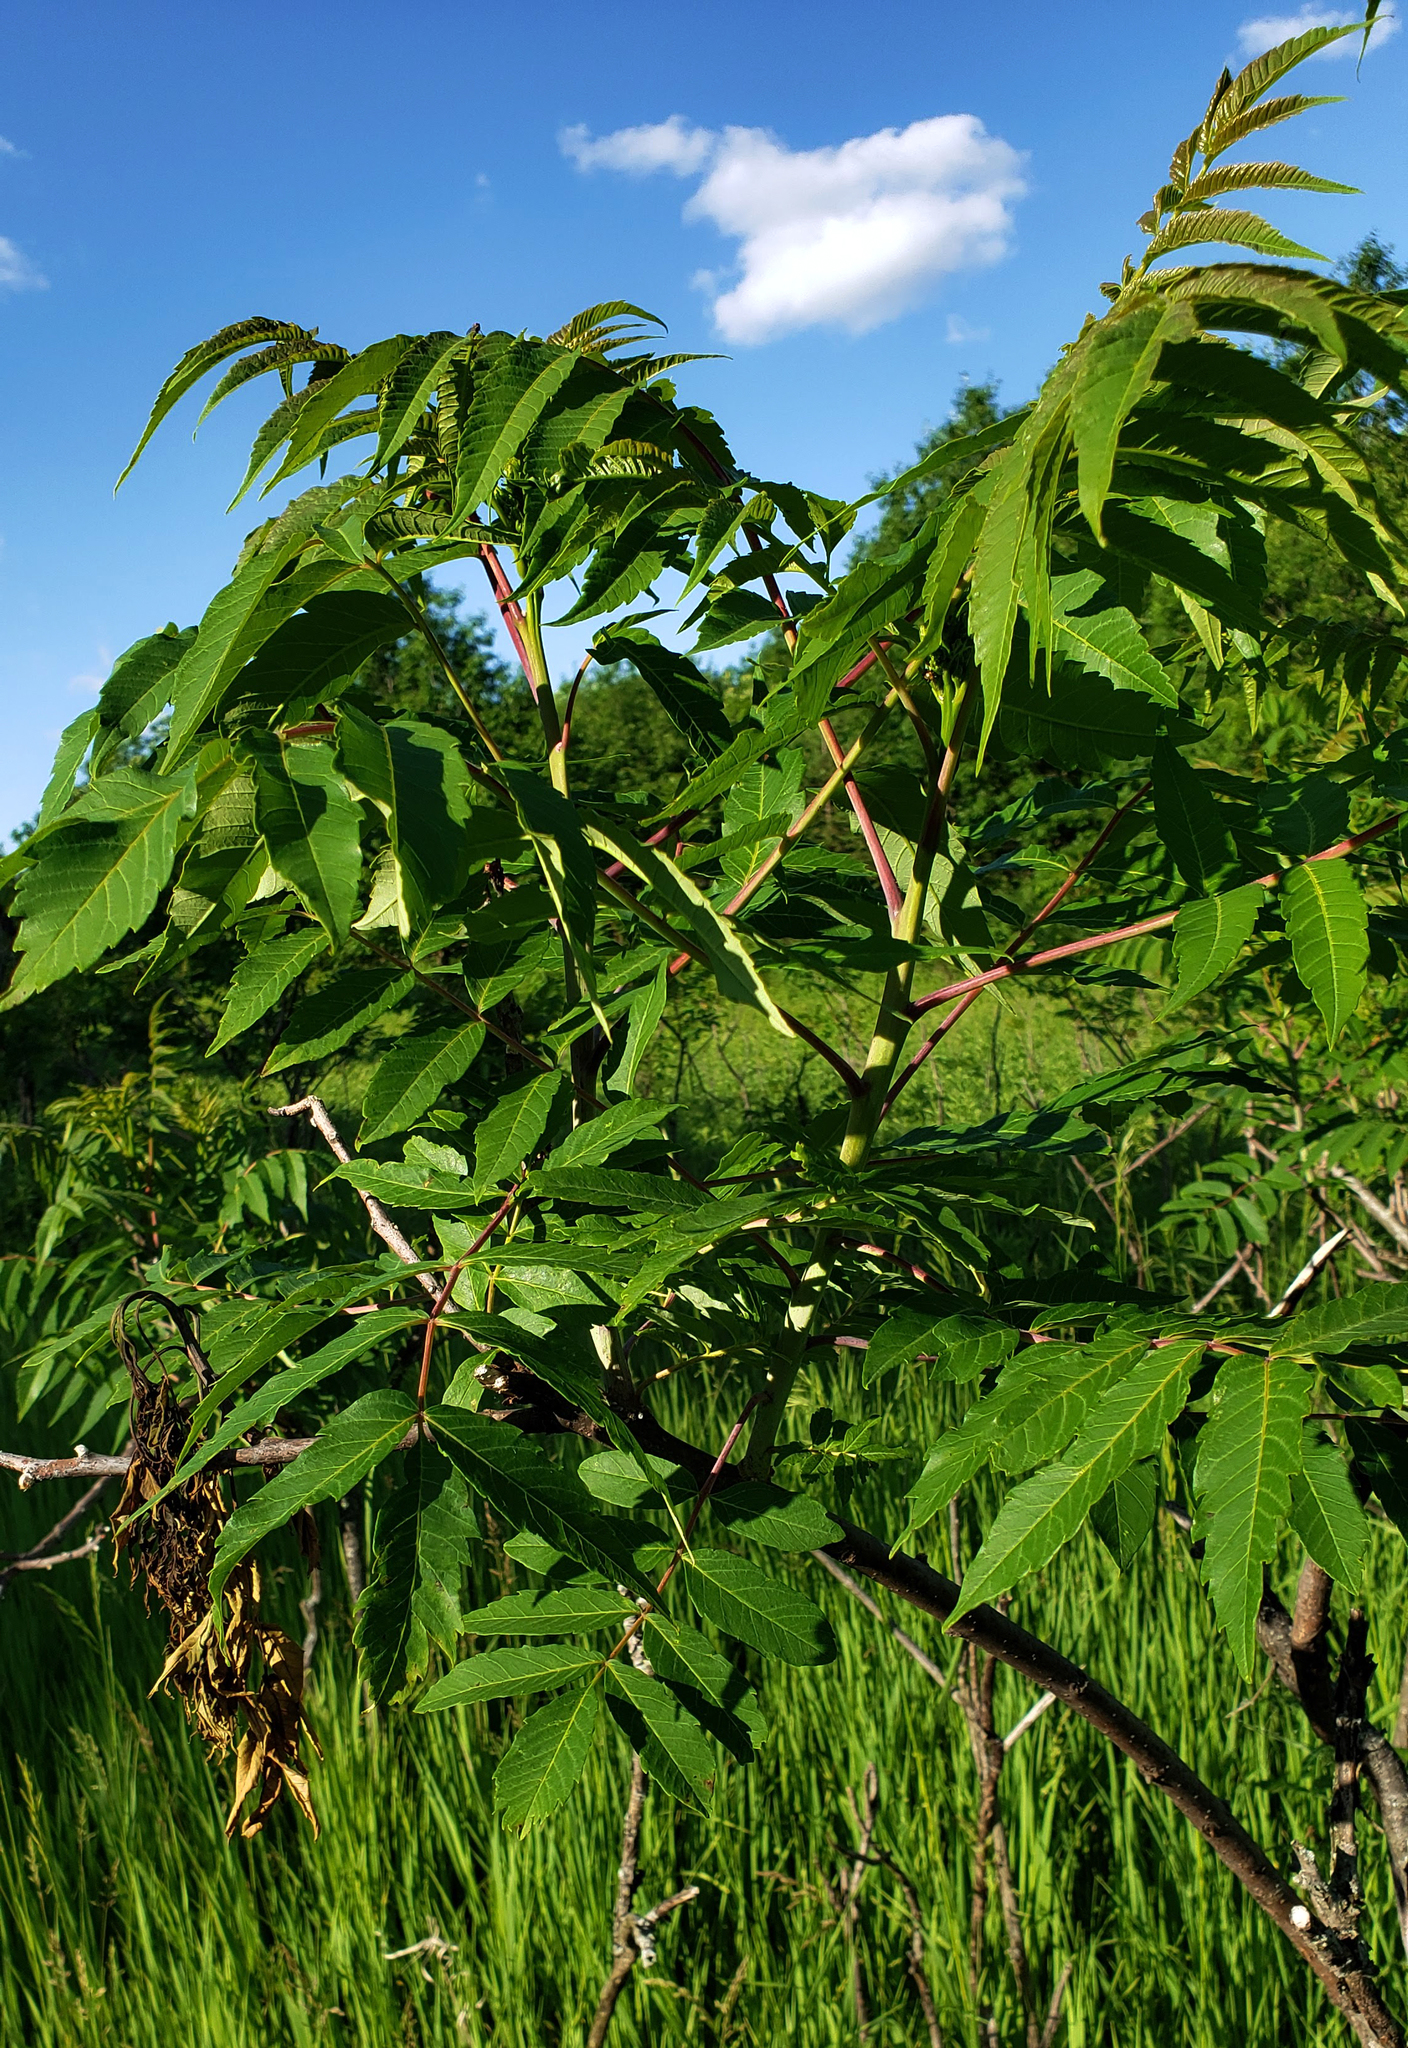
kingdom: Plantae
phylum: Tracheophyta
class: Magnoliopsida
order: Sapindales
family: Anacardiaceae
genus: Rhus
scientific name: Rhus glabra
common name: Scarlet sumac
